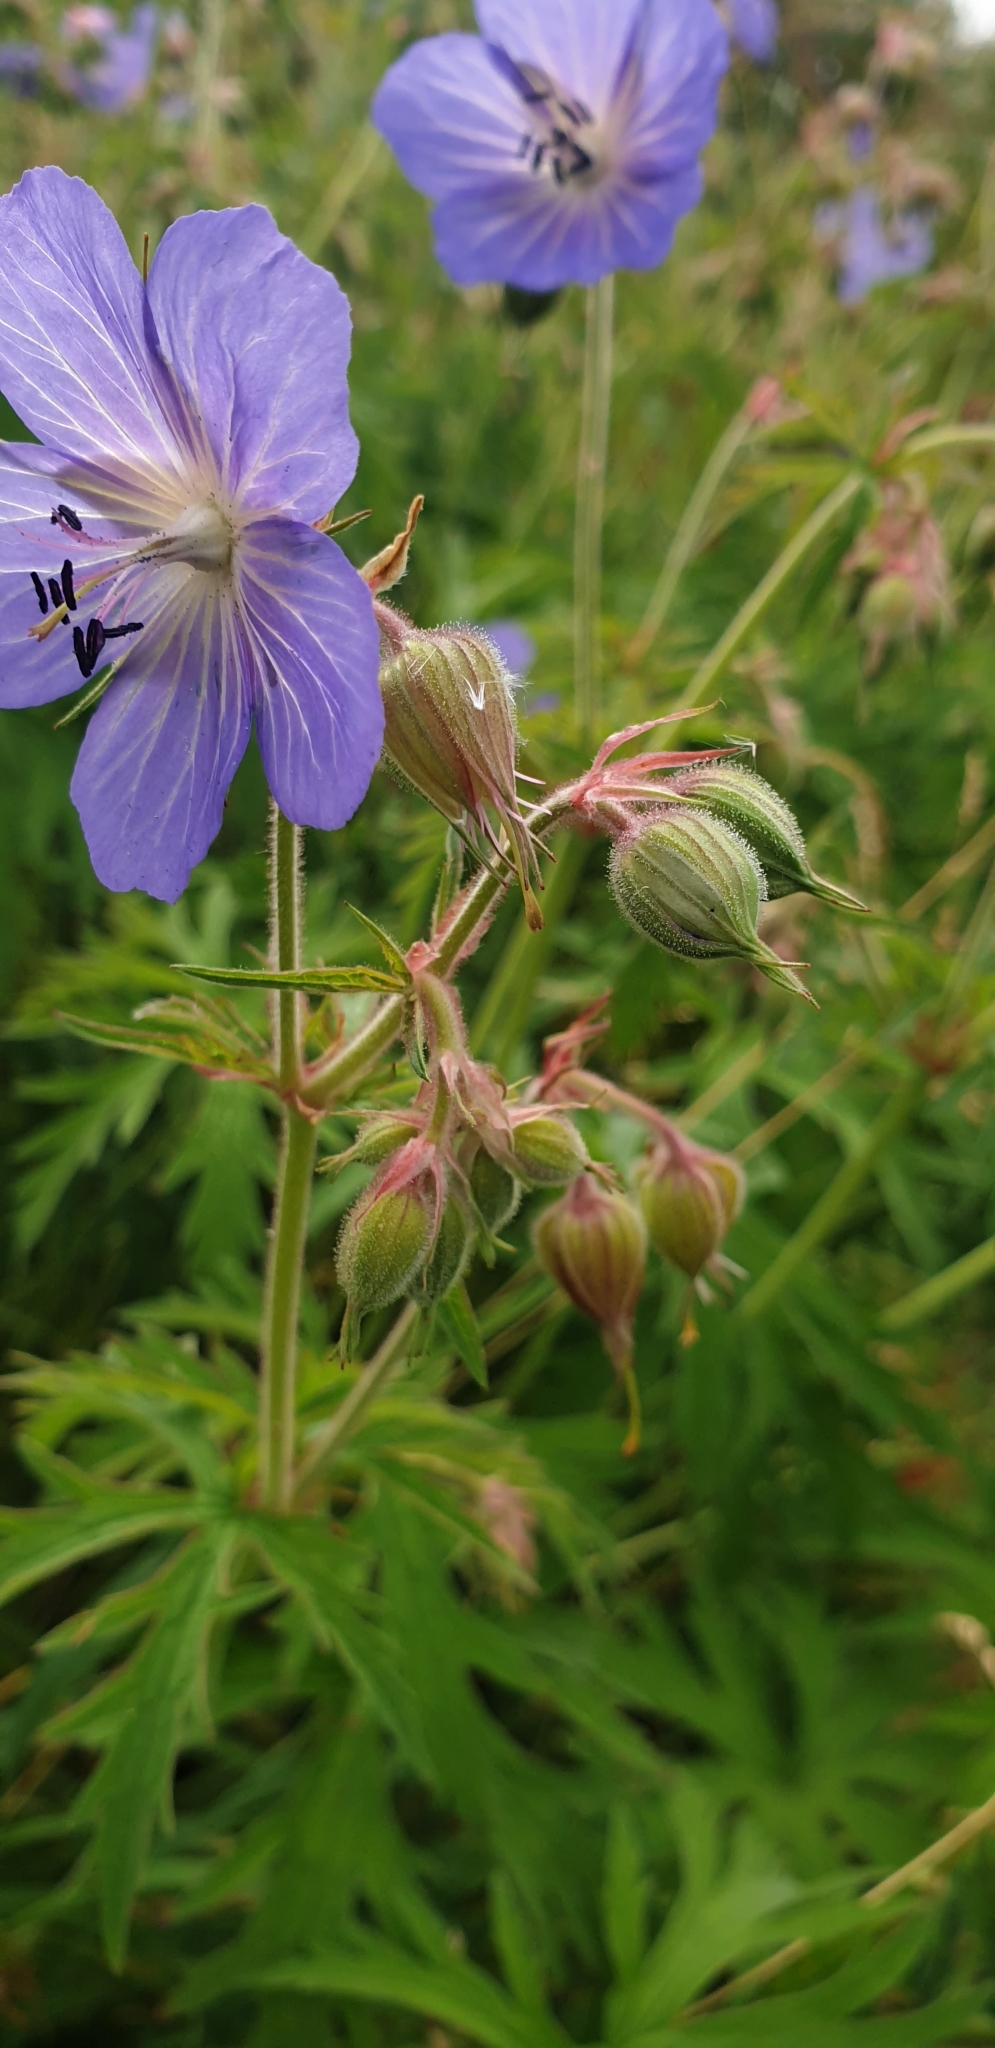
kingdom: Plantae
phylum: Tracheophyta
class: Magnoliopsida
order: Geraniales
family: Geraniaceae
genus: Geranium
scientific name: Geranium pratense
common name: Meadow crane's-bill
